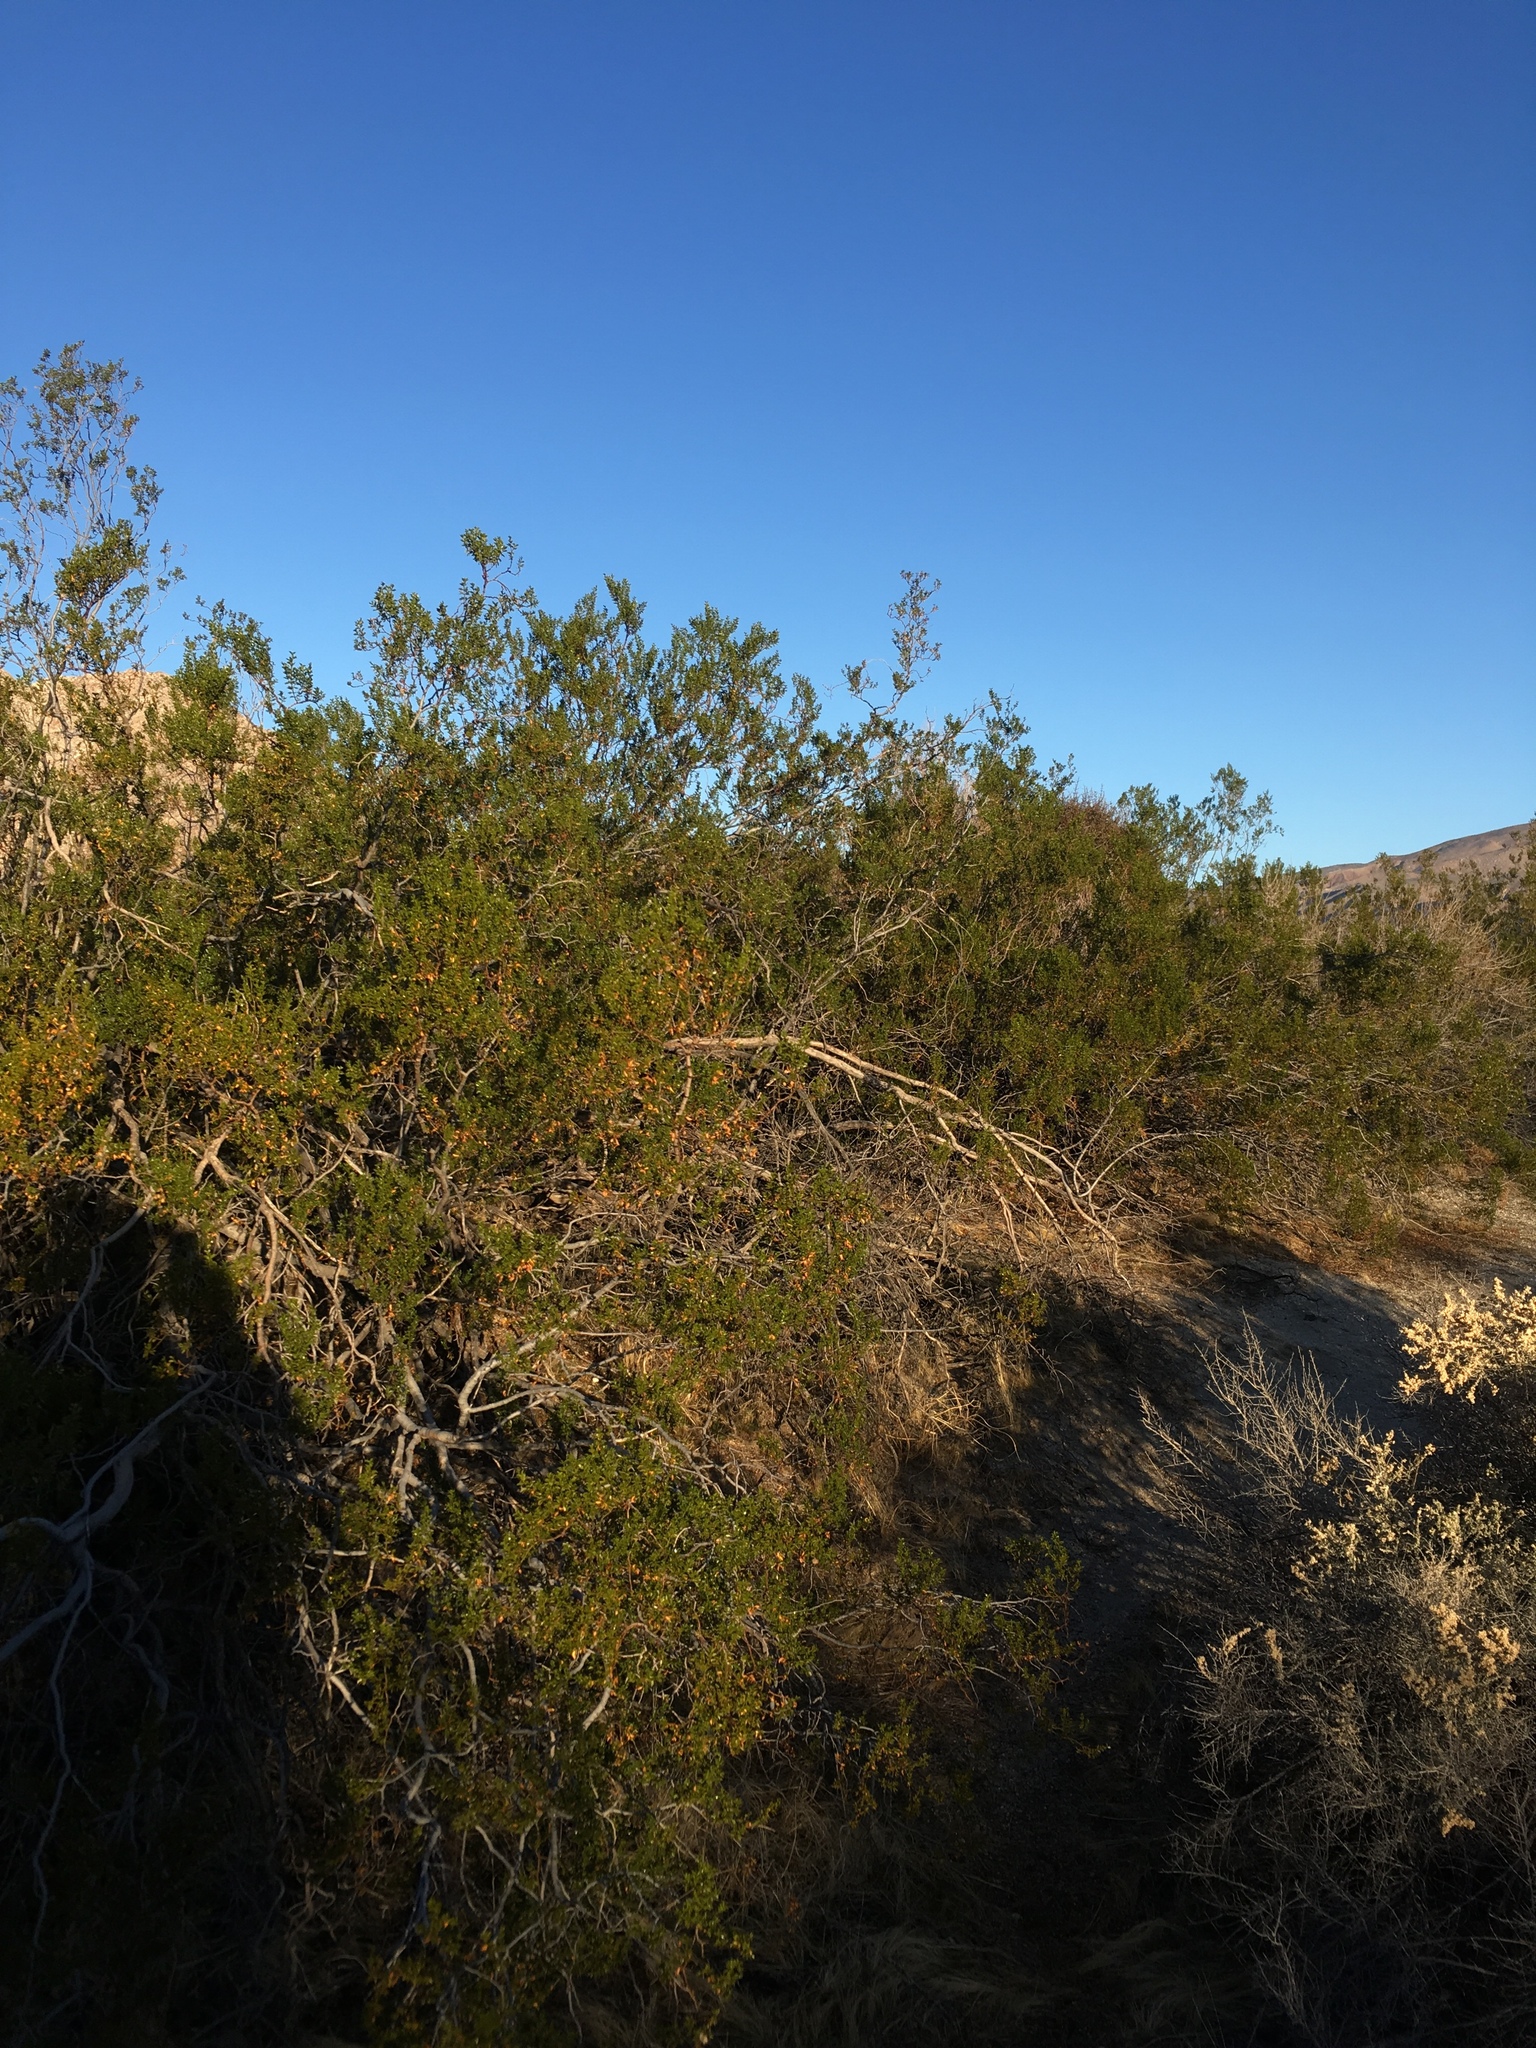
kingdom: Plantae
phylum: Tracheophyta
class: Magnoliopsida
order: Zygophyllales
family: Zygophyllaceae
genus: Larrea
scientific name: Larrea tridentata
